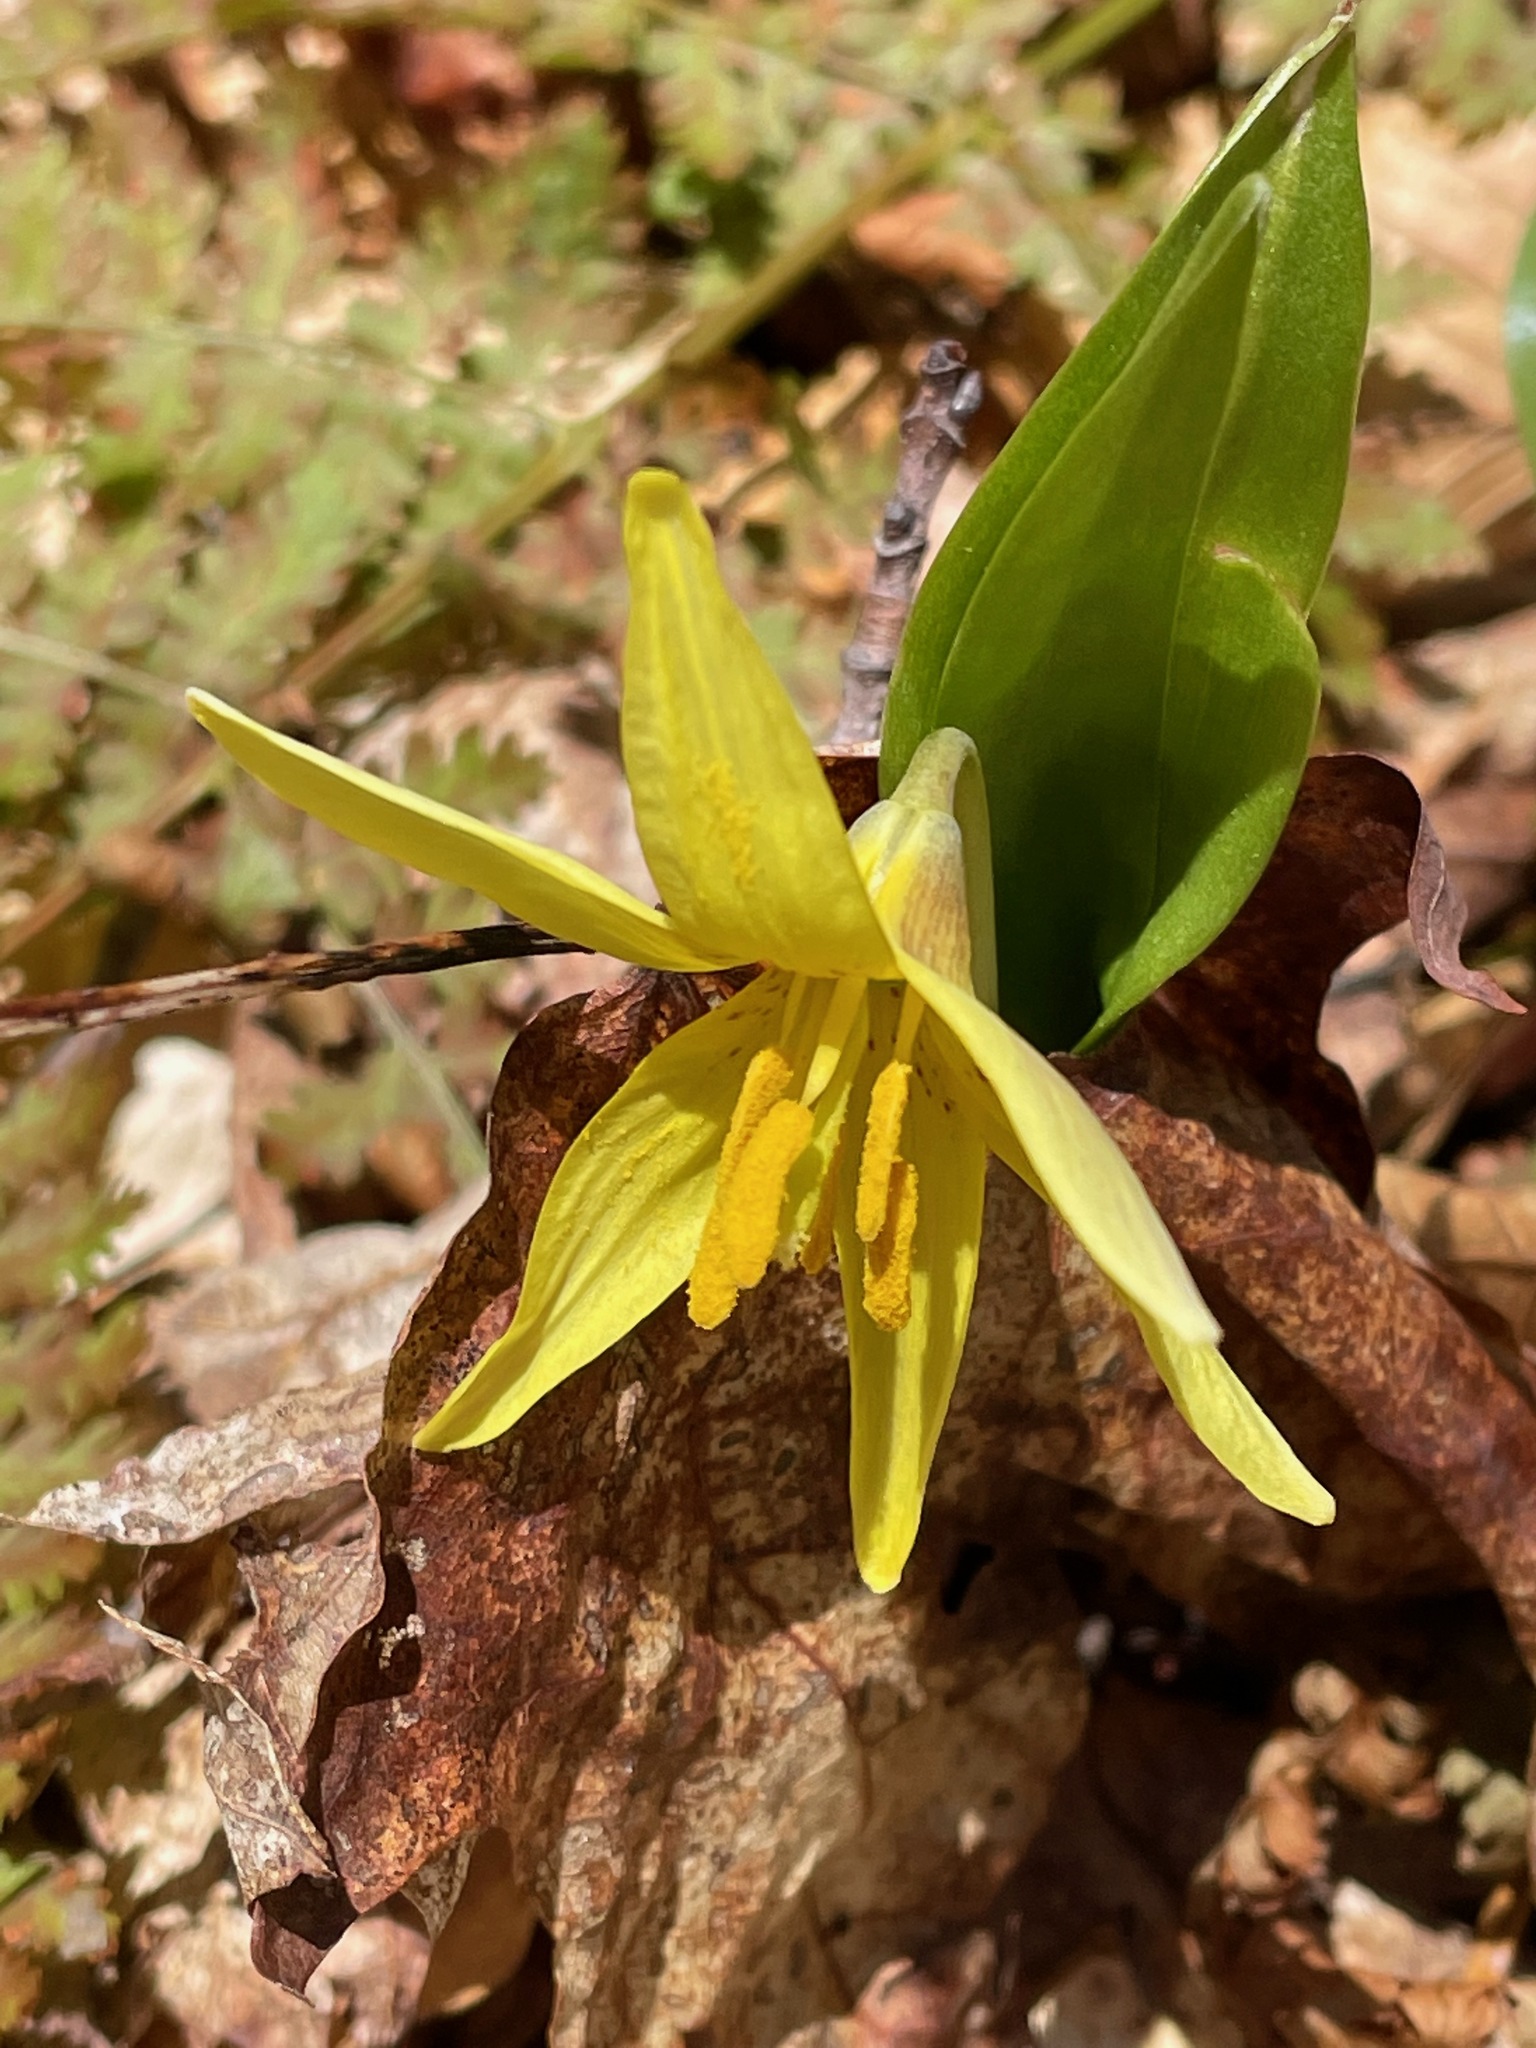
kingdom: Plantae
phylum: Tracheophyta
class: Liliopsida
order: Liliales
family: Liliaceae
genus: Erythronium
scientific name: Erythronium americanum
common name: Yellow adder's-tongue
